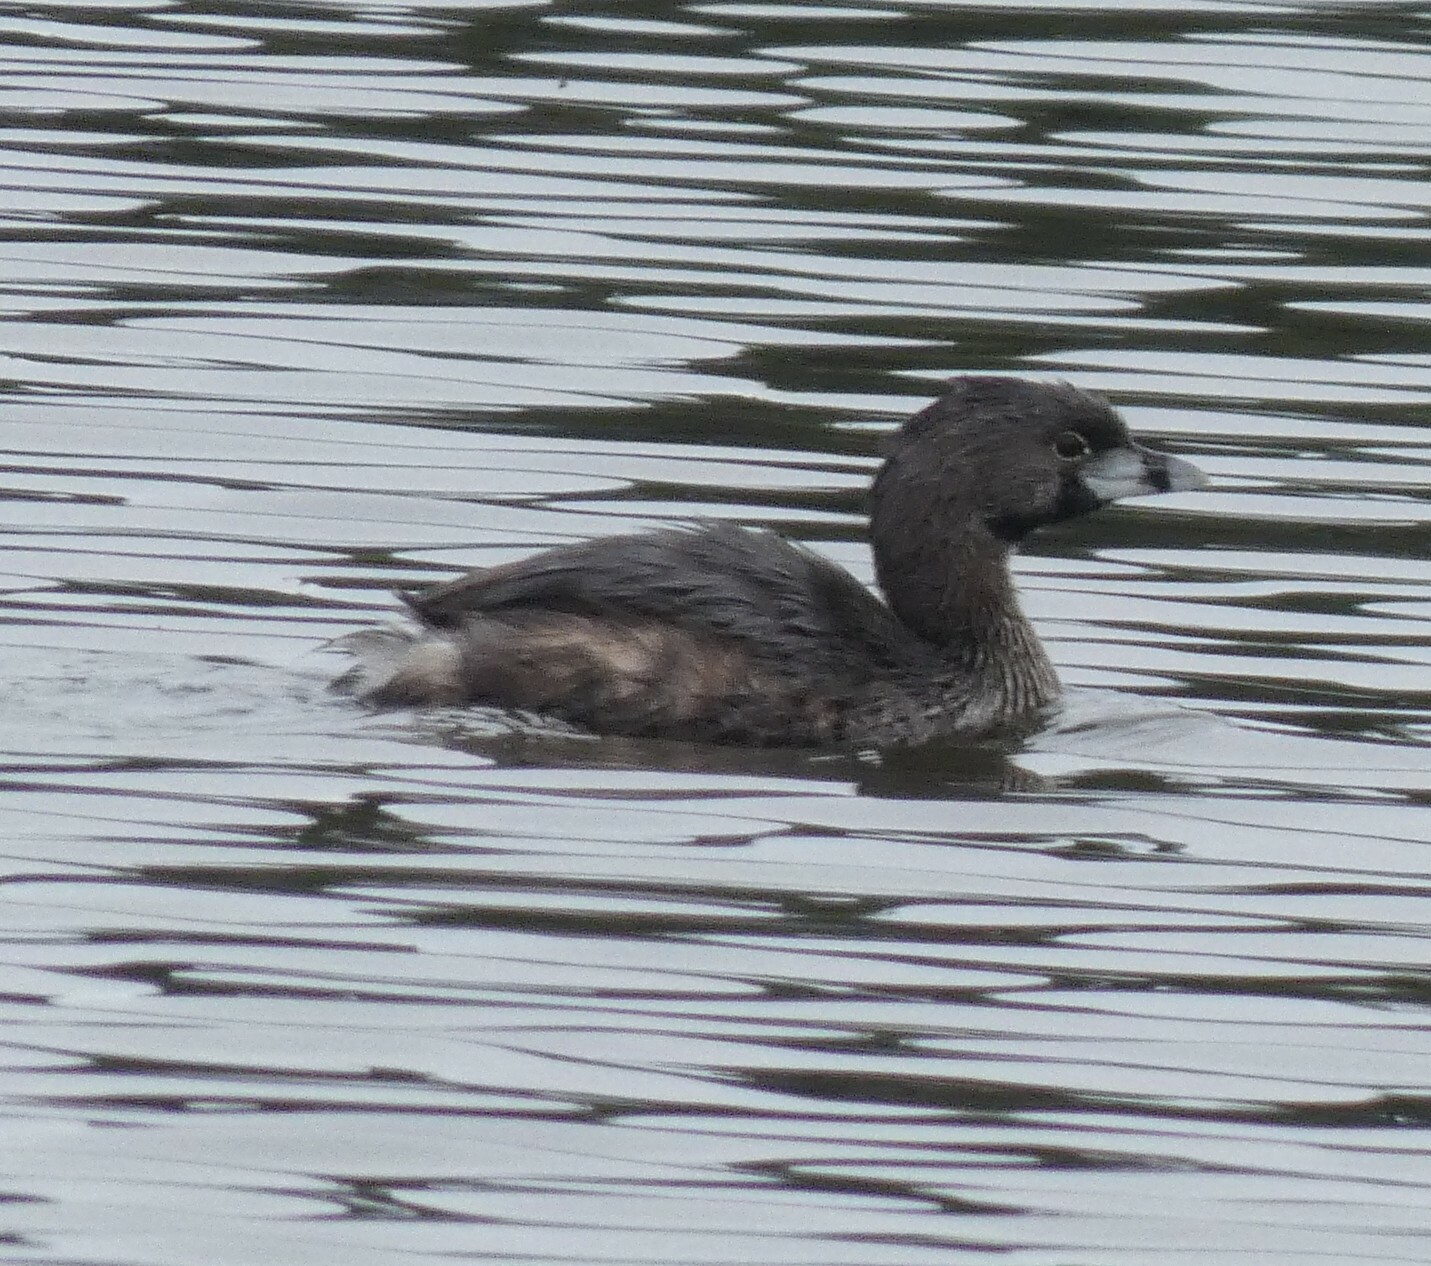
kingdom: Animalia
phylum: Chordata
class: Aves
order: Podicipediformes
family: Podicipedidae
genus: Podilymbus
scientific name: Podilymbus podiceps
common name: Pied-billed grebe
